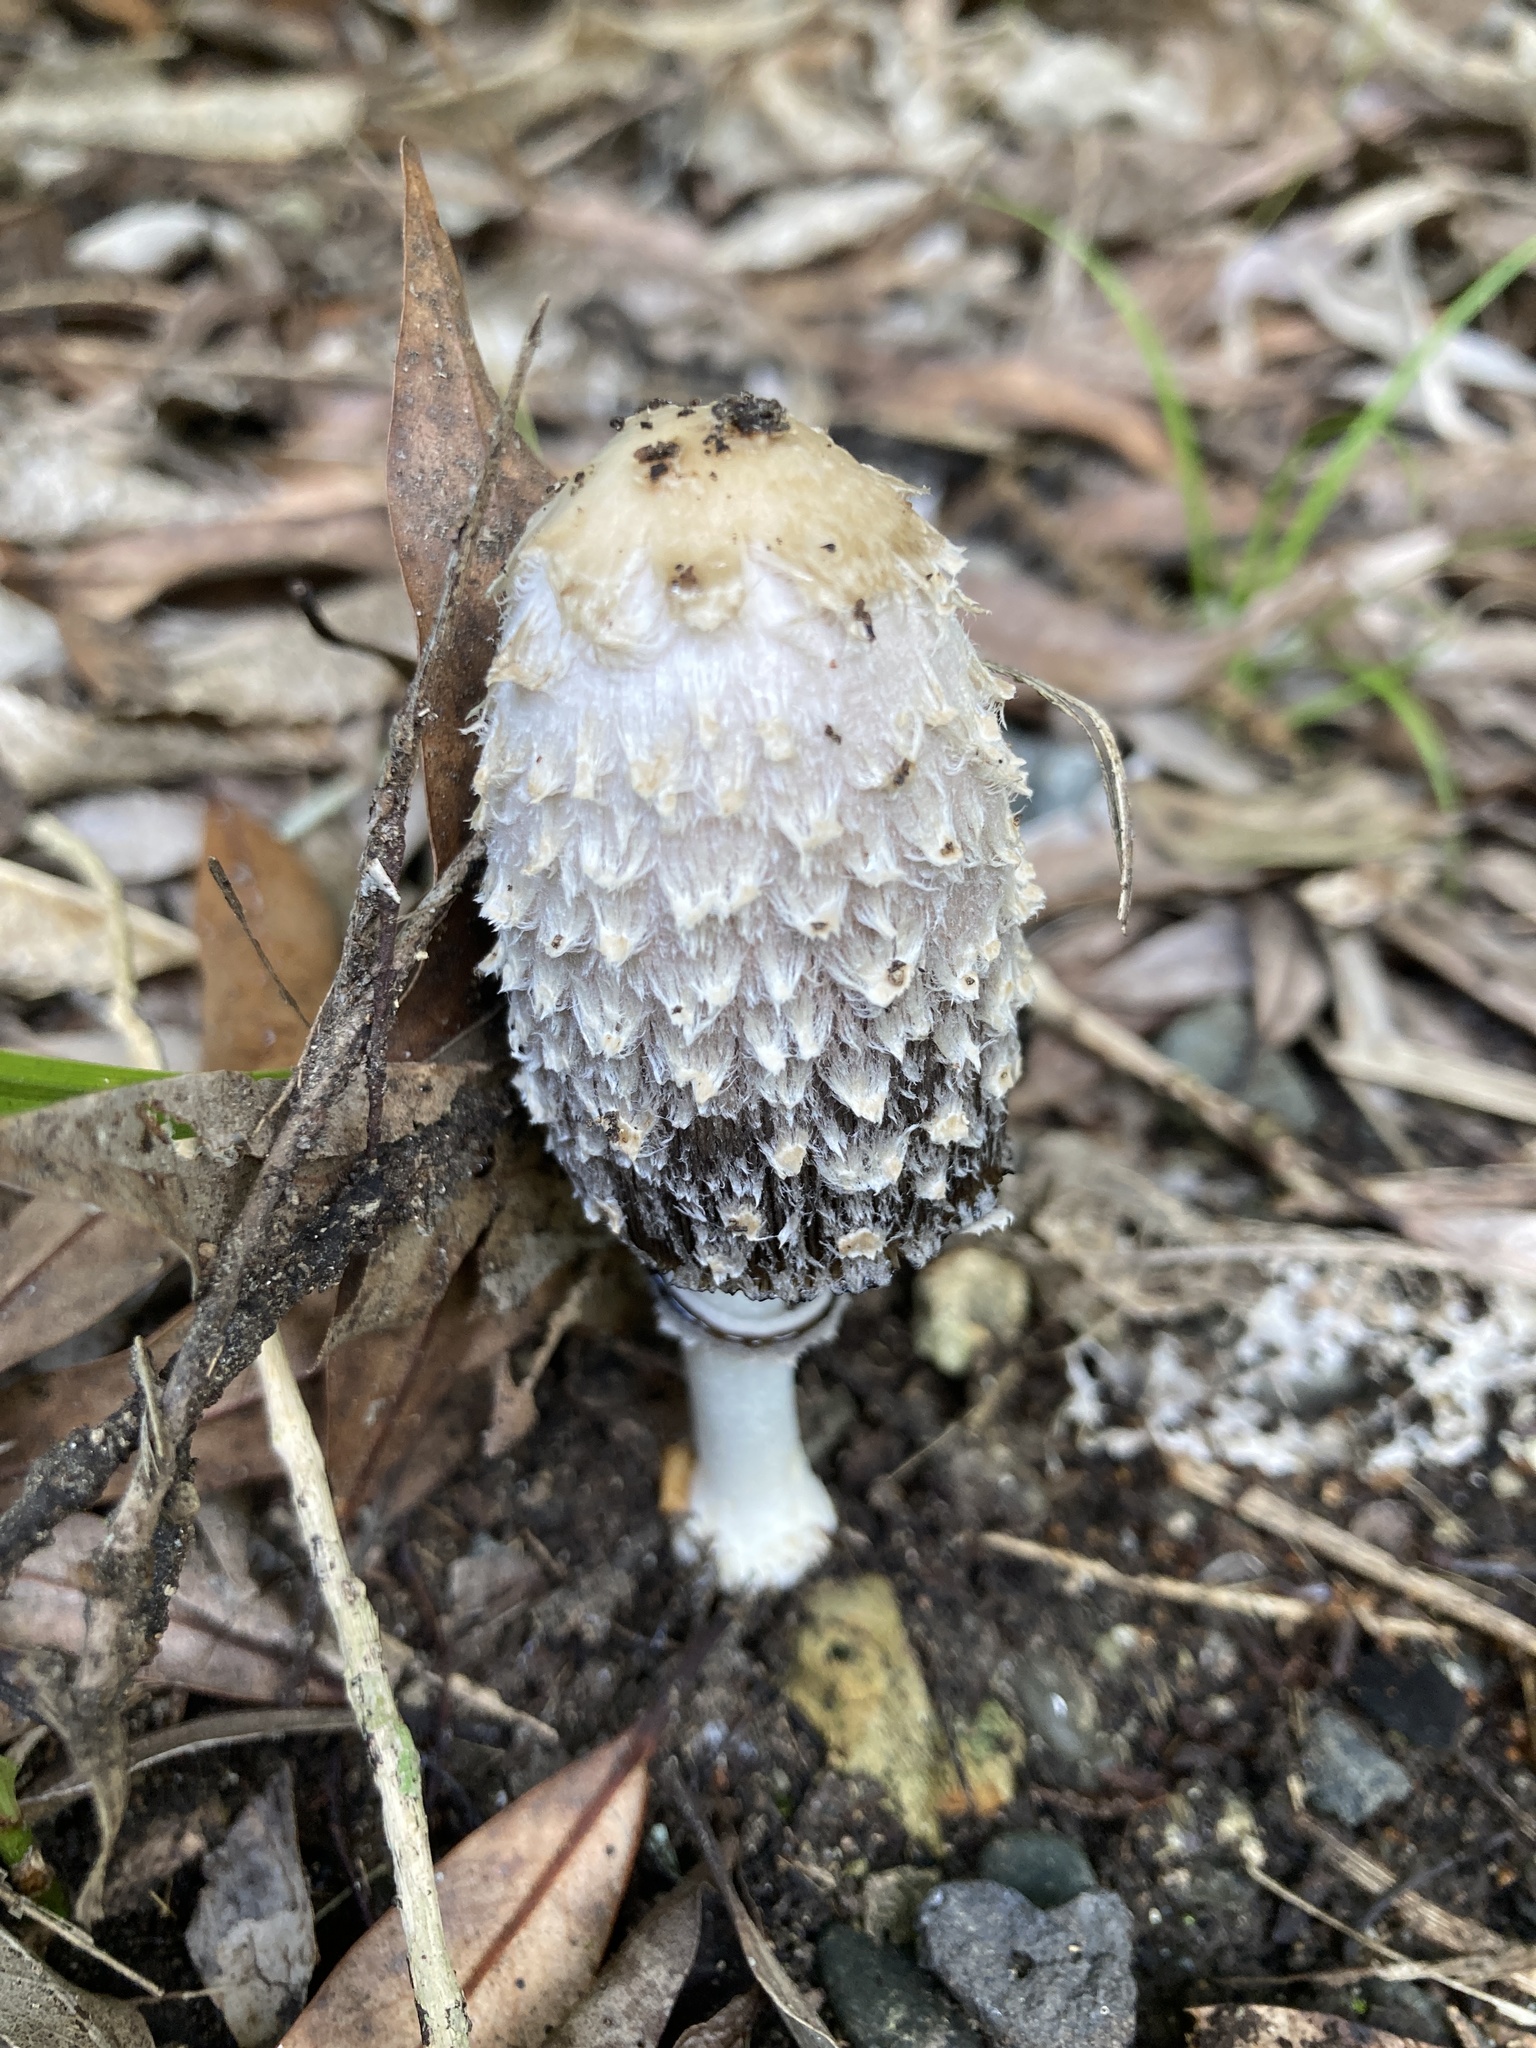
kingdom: Fungi
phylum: Basidiomycota
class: Agaricomycetes
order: Agaricales
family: Agaricaceae
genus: Coprinus
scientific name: Coprinus comatus
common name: Lawyer's wig
